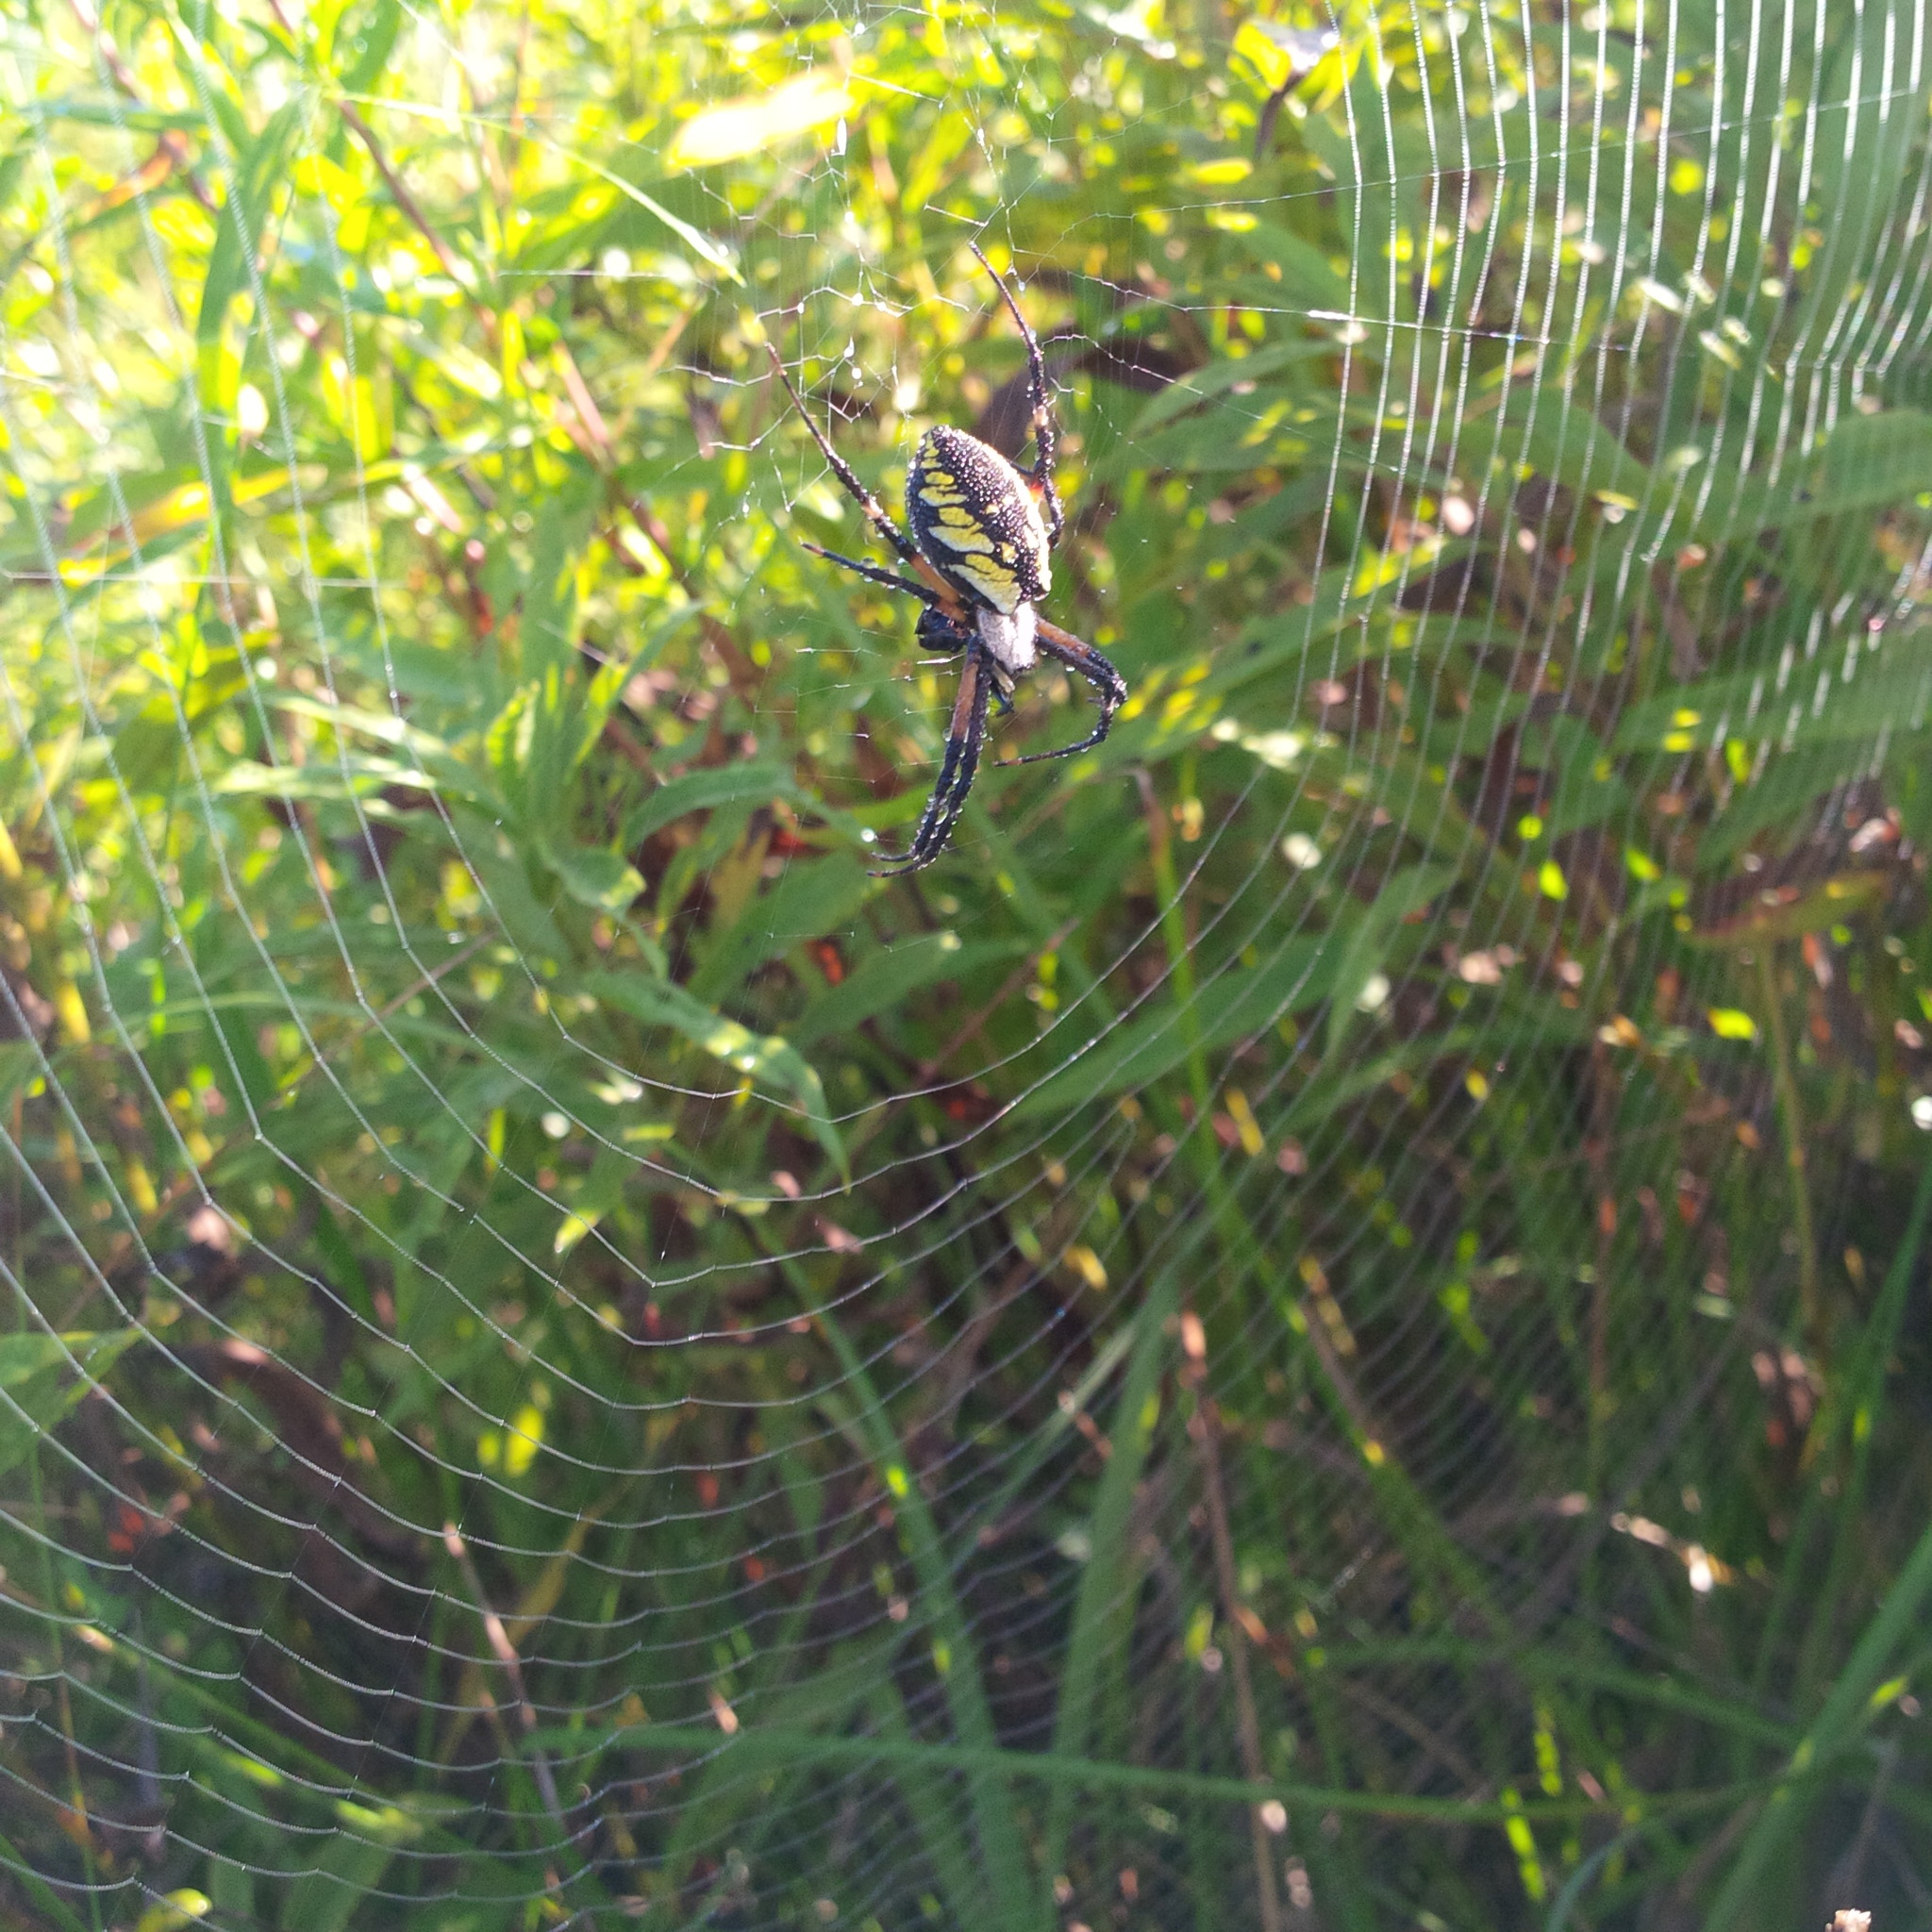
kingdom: Animalia
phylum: Arthropoda
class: Arachnida
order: Araneae
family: Araneidae
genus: Argiope
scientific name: Argiope aurantia
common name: Orb weavers
